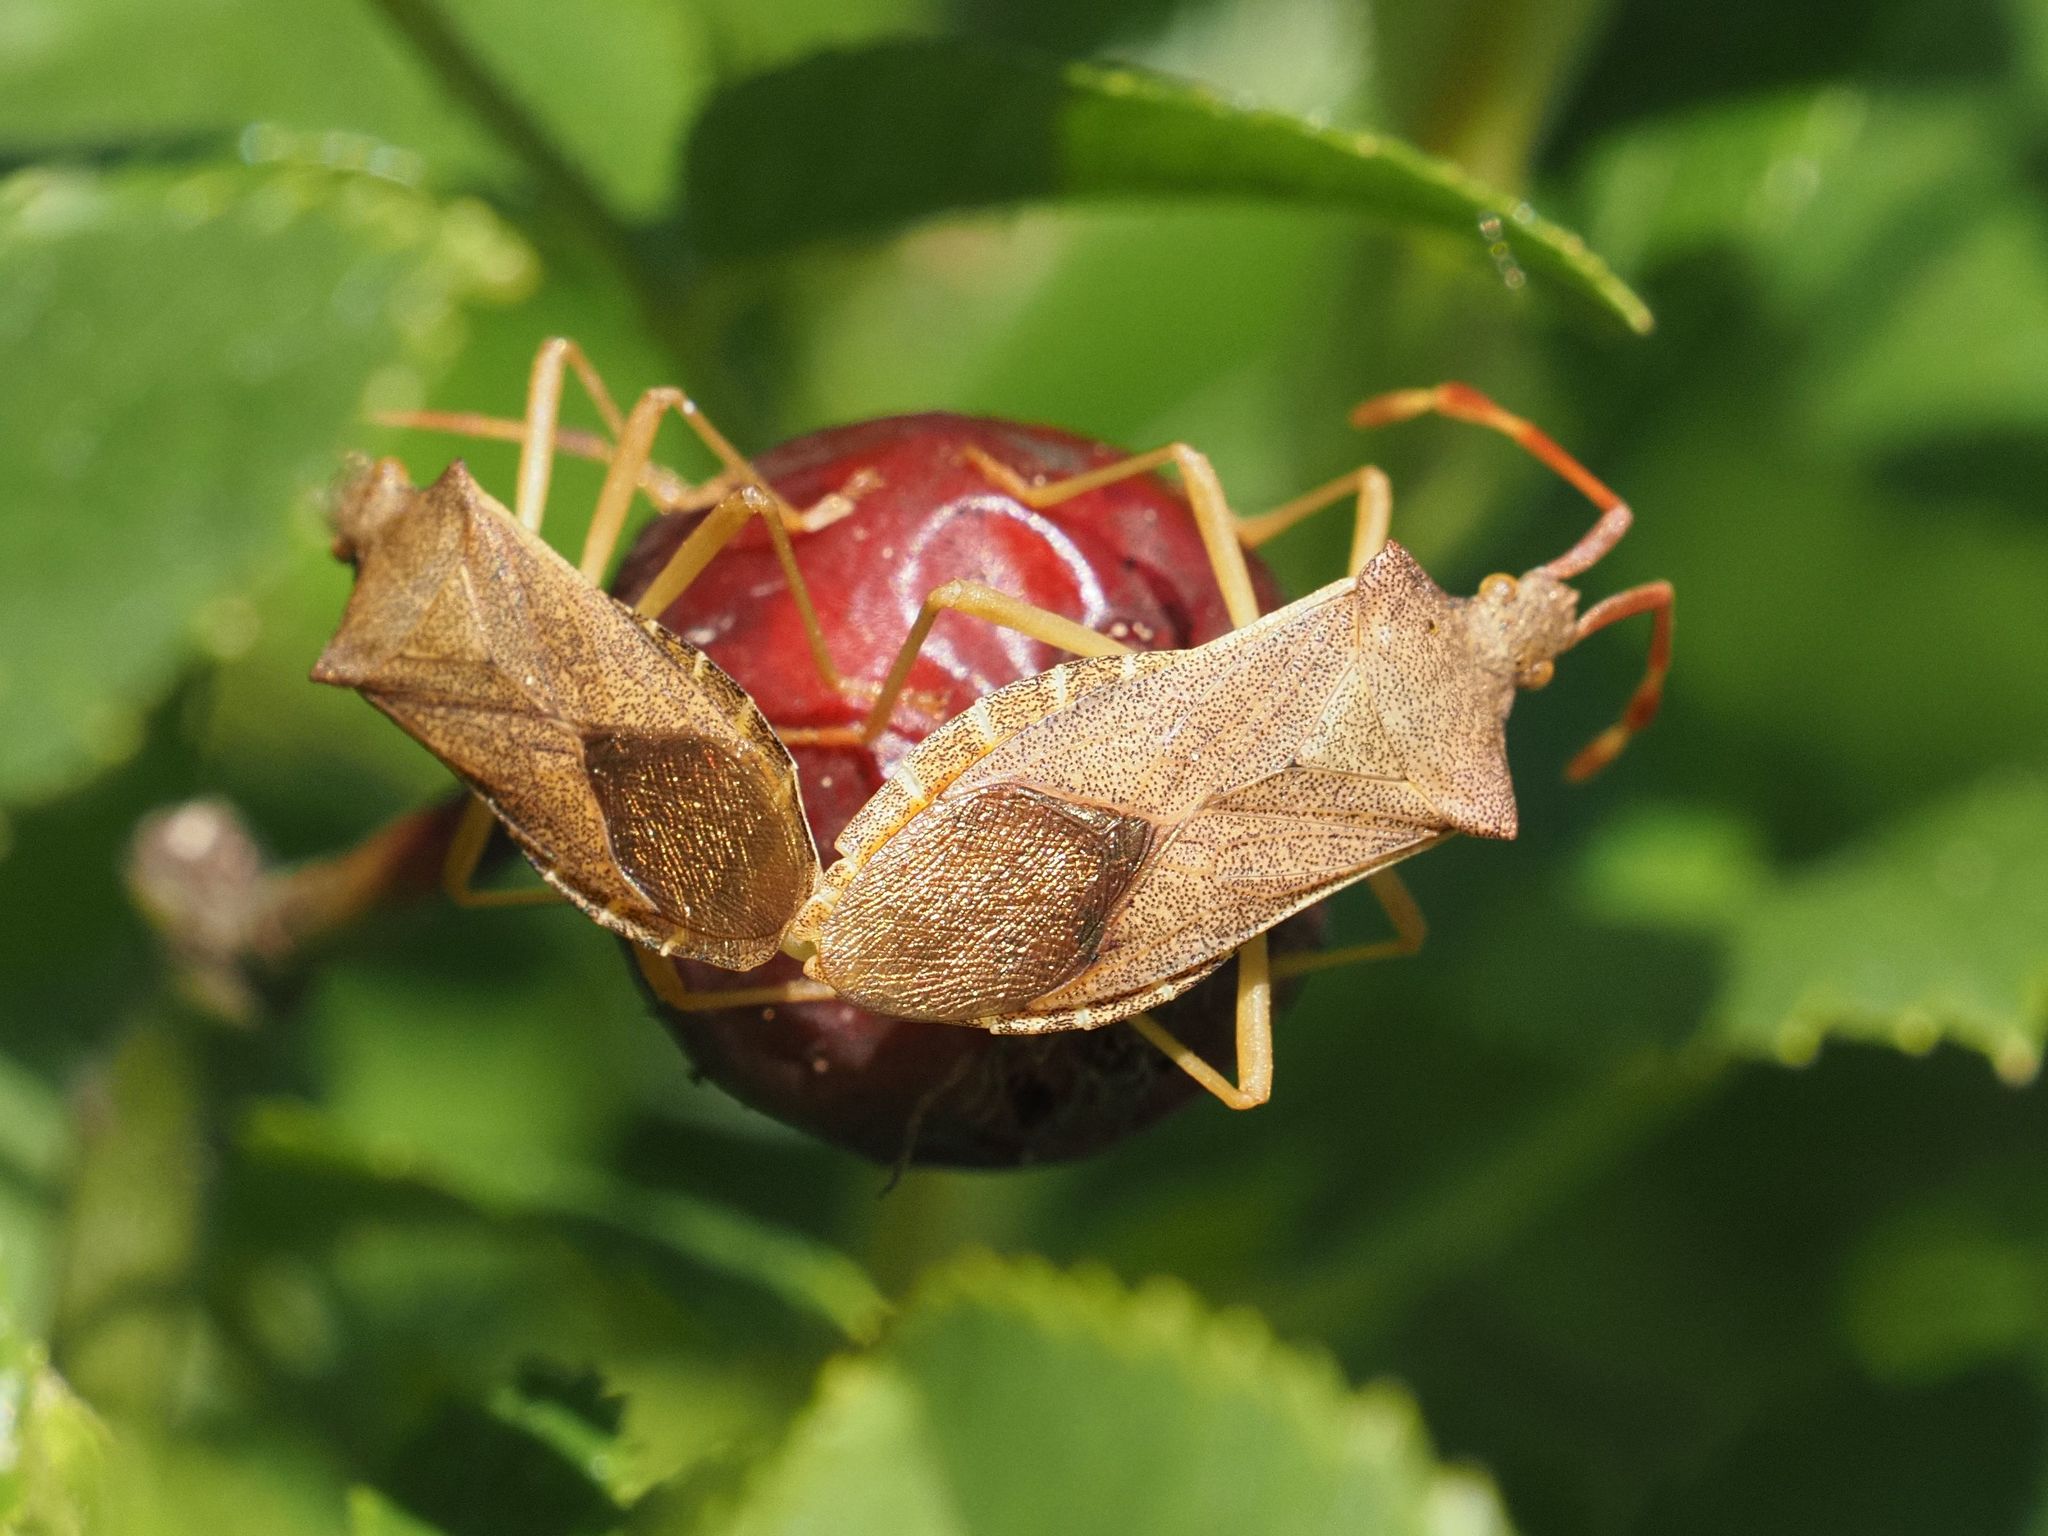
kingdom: Animalia
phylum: Arthropoda
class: Insecta
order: Hemiptera
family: Coreidae
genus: Gonocerus
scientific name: Gonocerus acuteangulatus
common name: Box bug
